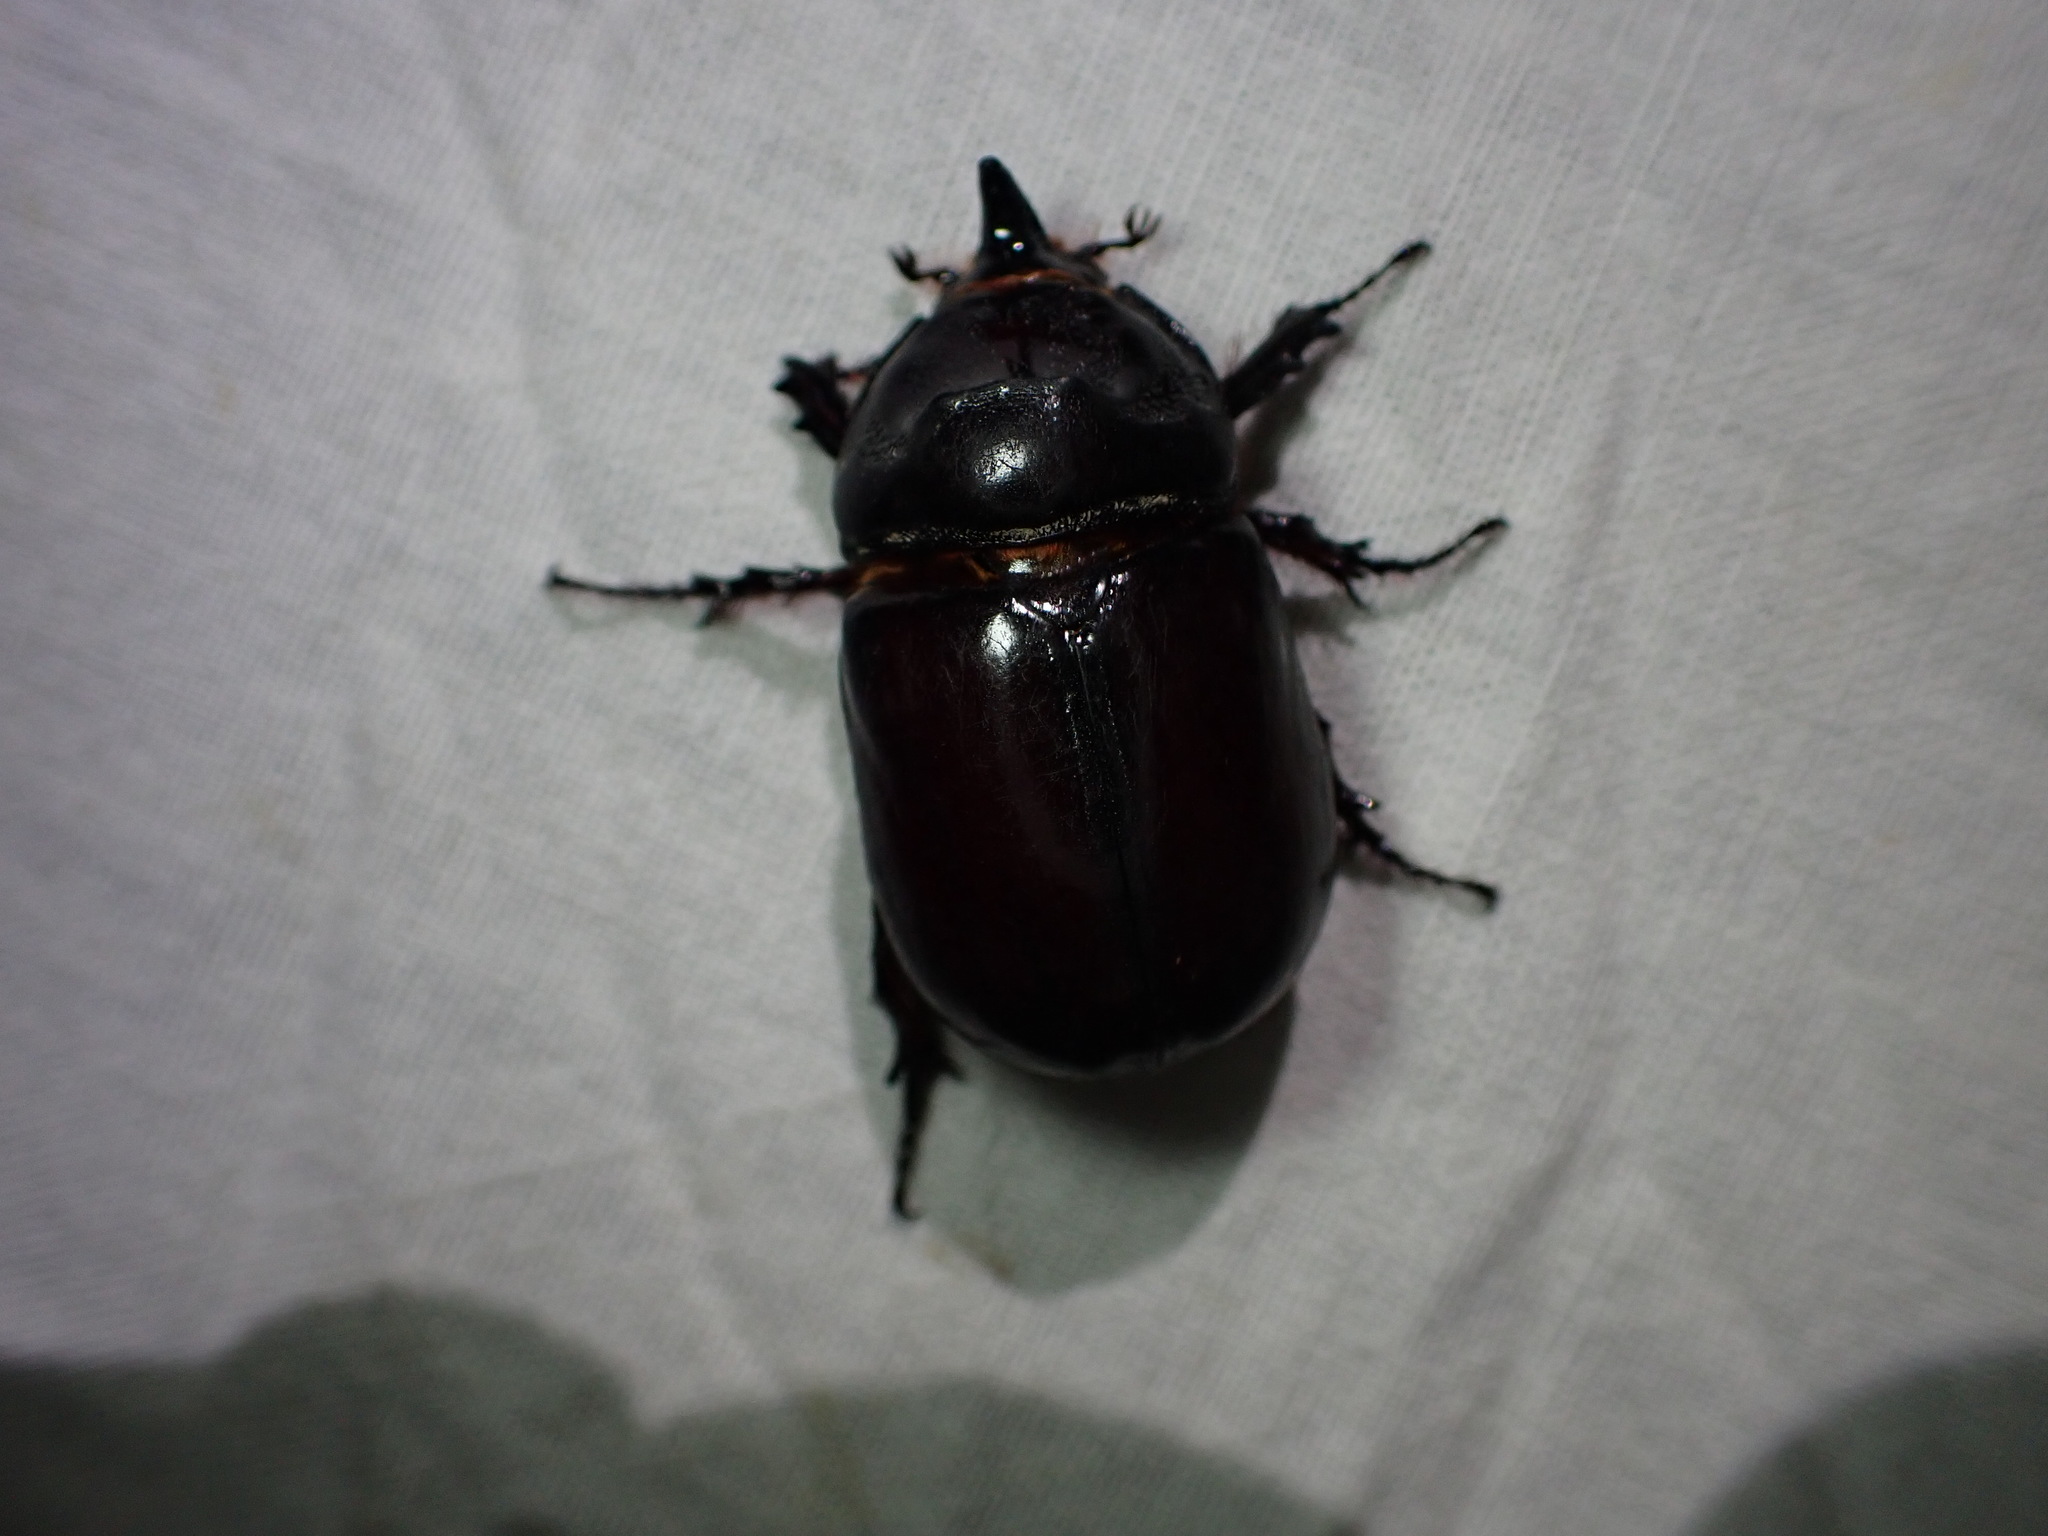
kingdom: Animalia
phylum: Arthropoda
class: Insecta
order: Coleoptera
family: Scarabaeidae
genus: Oryctes
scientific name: Oryctes nasicornis
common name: European rhinoceros beetle
